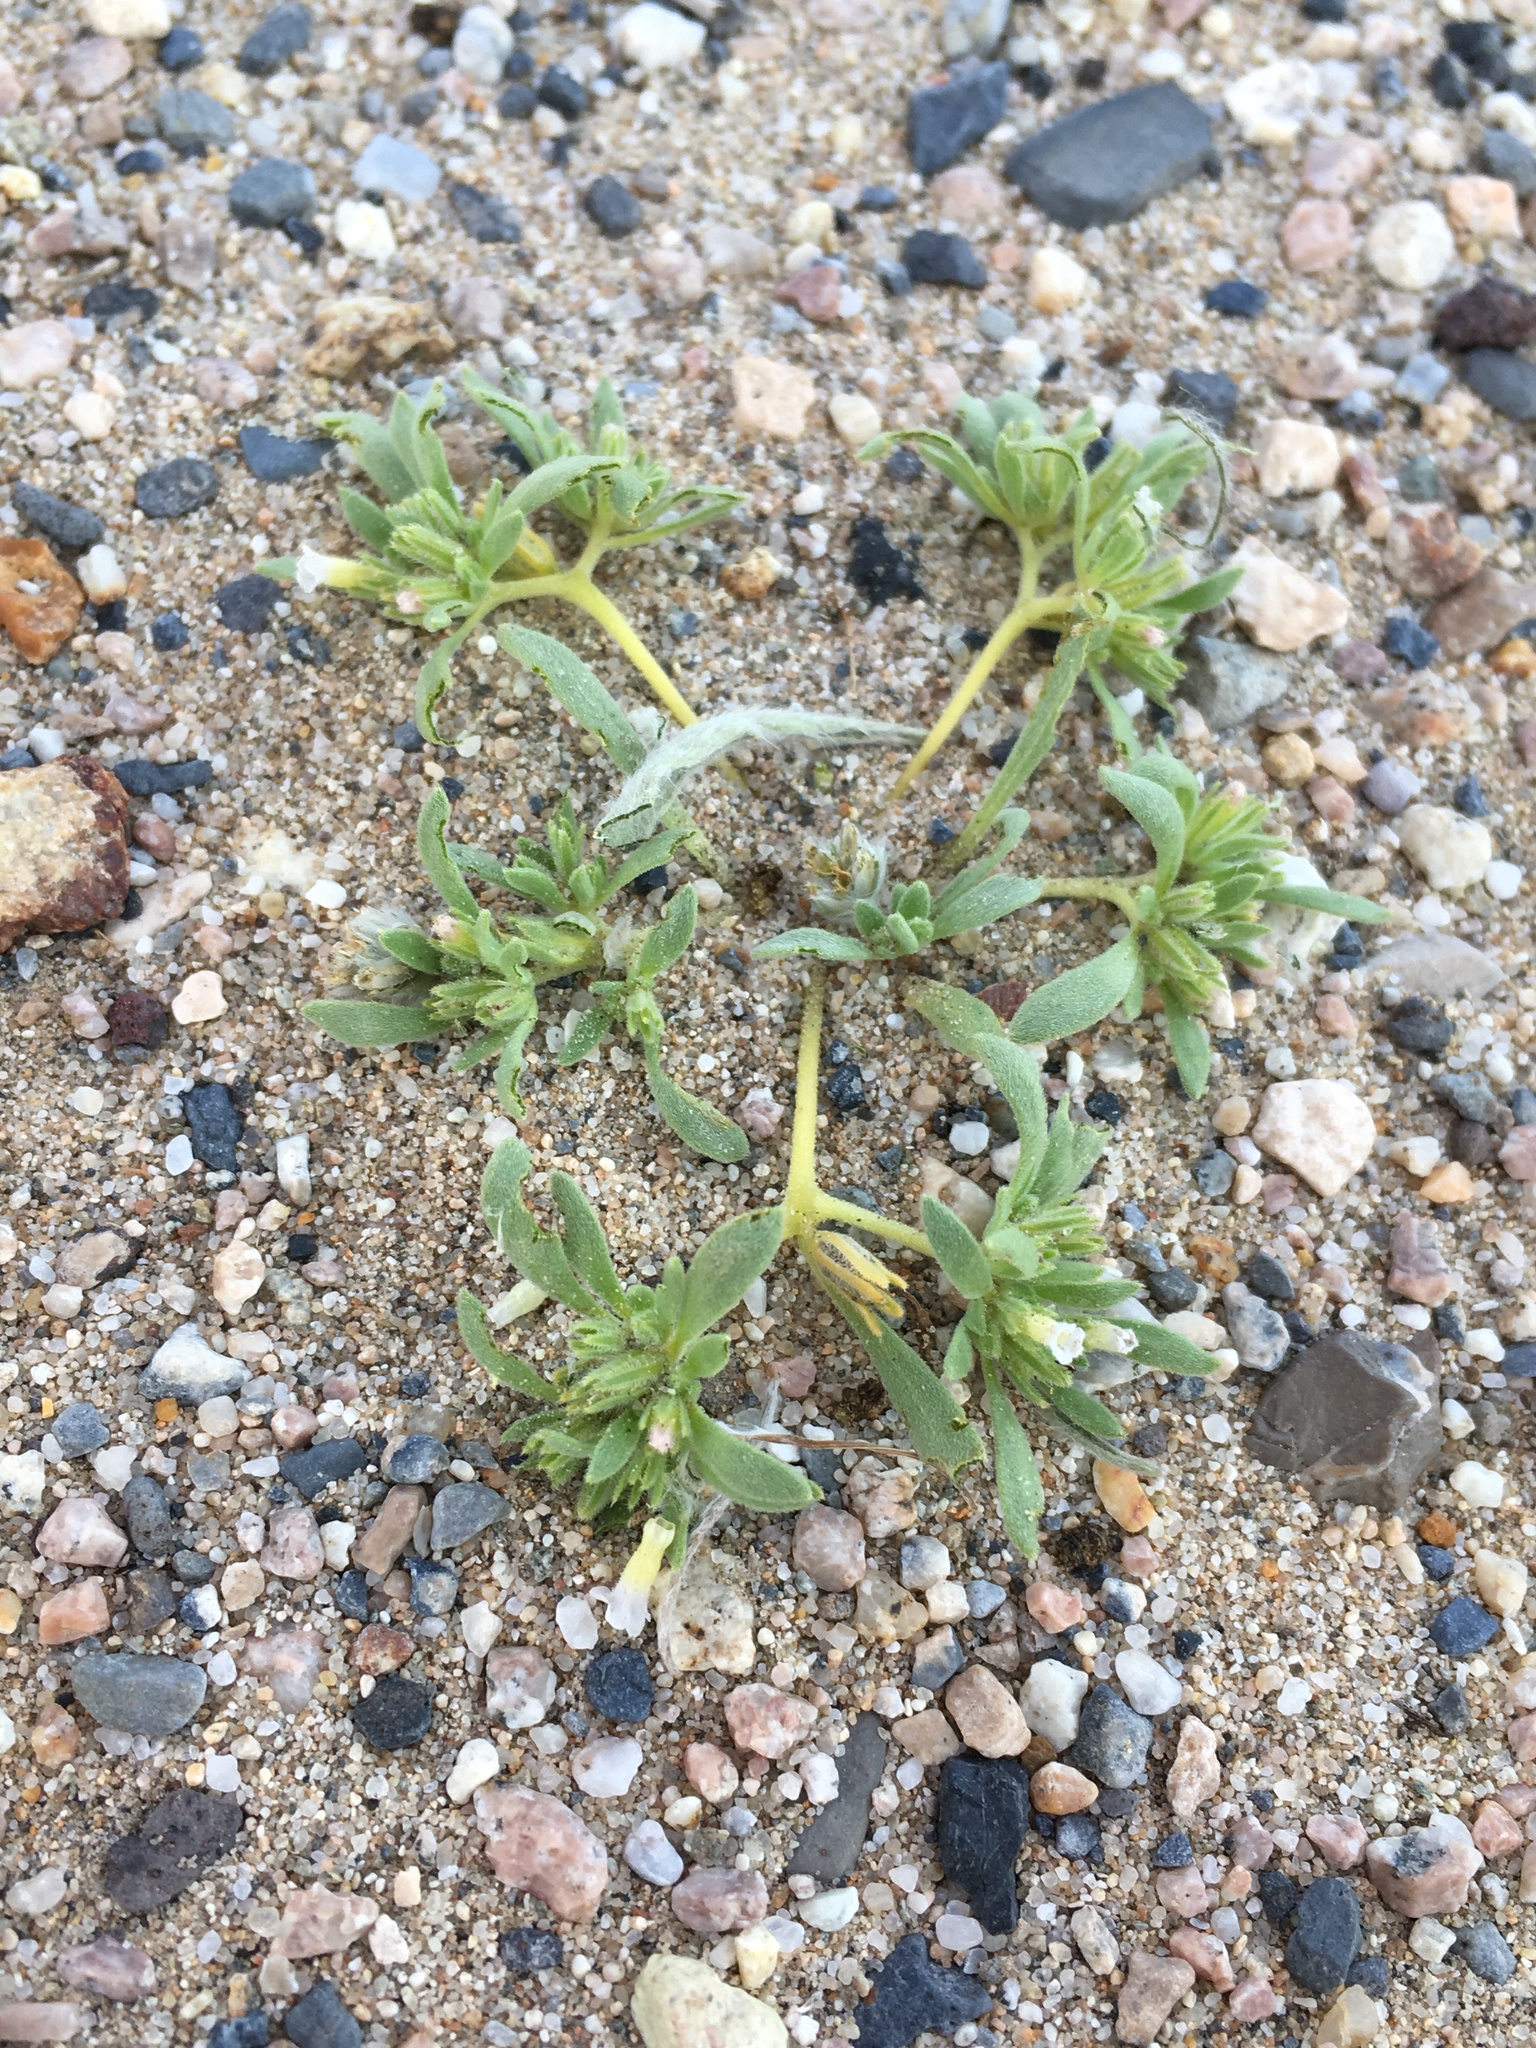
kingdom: Plantae
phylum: Tracheophyta
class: Magnoliopsida
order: Boraginales
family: Namaceae
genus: Nama
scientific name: Nama depressa
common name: Depressed fiddleleaf
